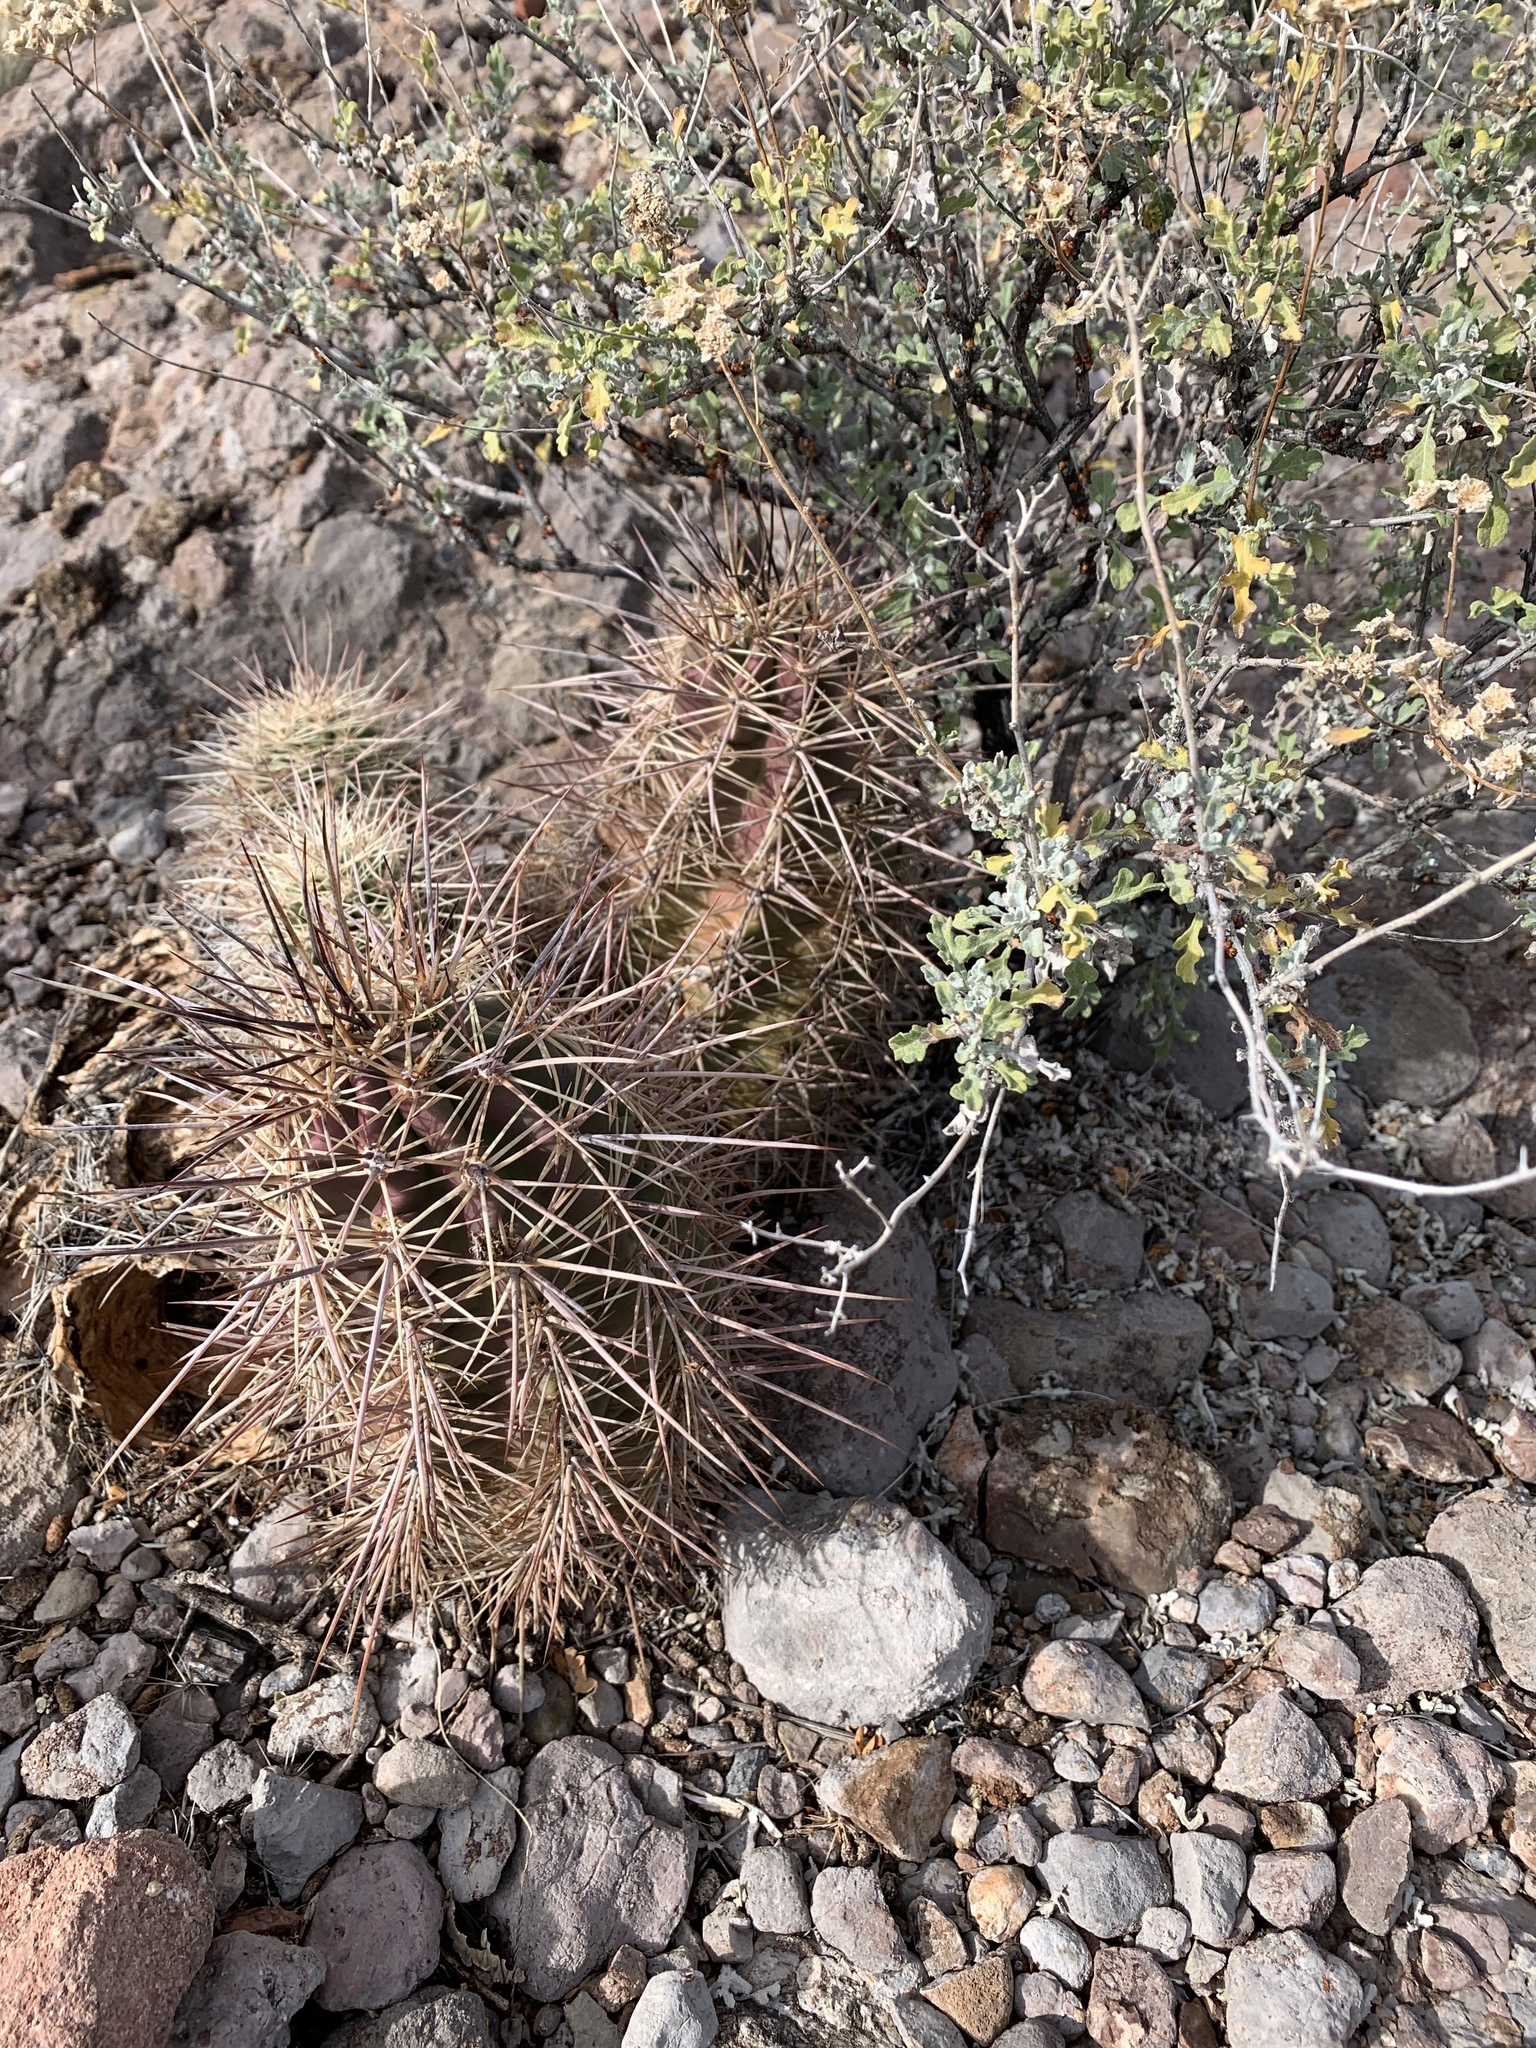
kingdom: Plantae
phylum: Tracheophyta
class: Magnoliopsida
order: Caryophyllales
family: Cactaceae
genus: Echinocereus
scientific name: Echinocereus coccineus
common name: Scarlet hedgehog cactus
